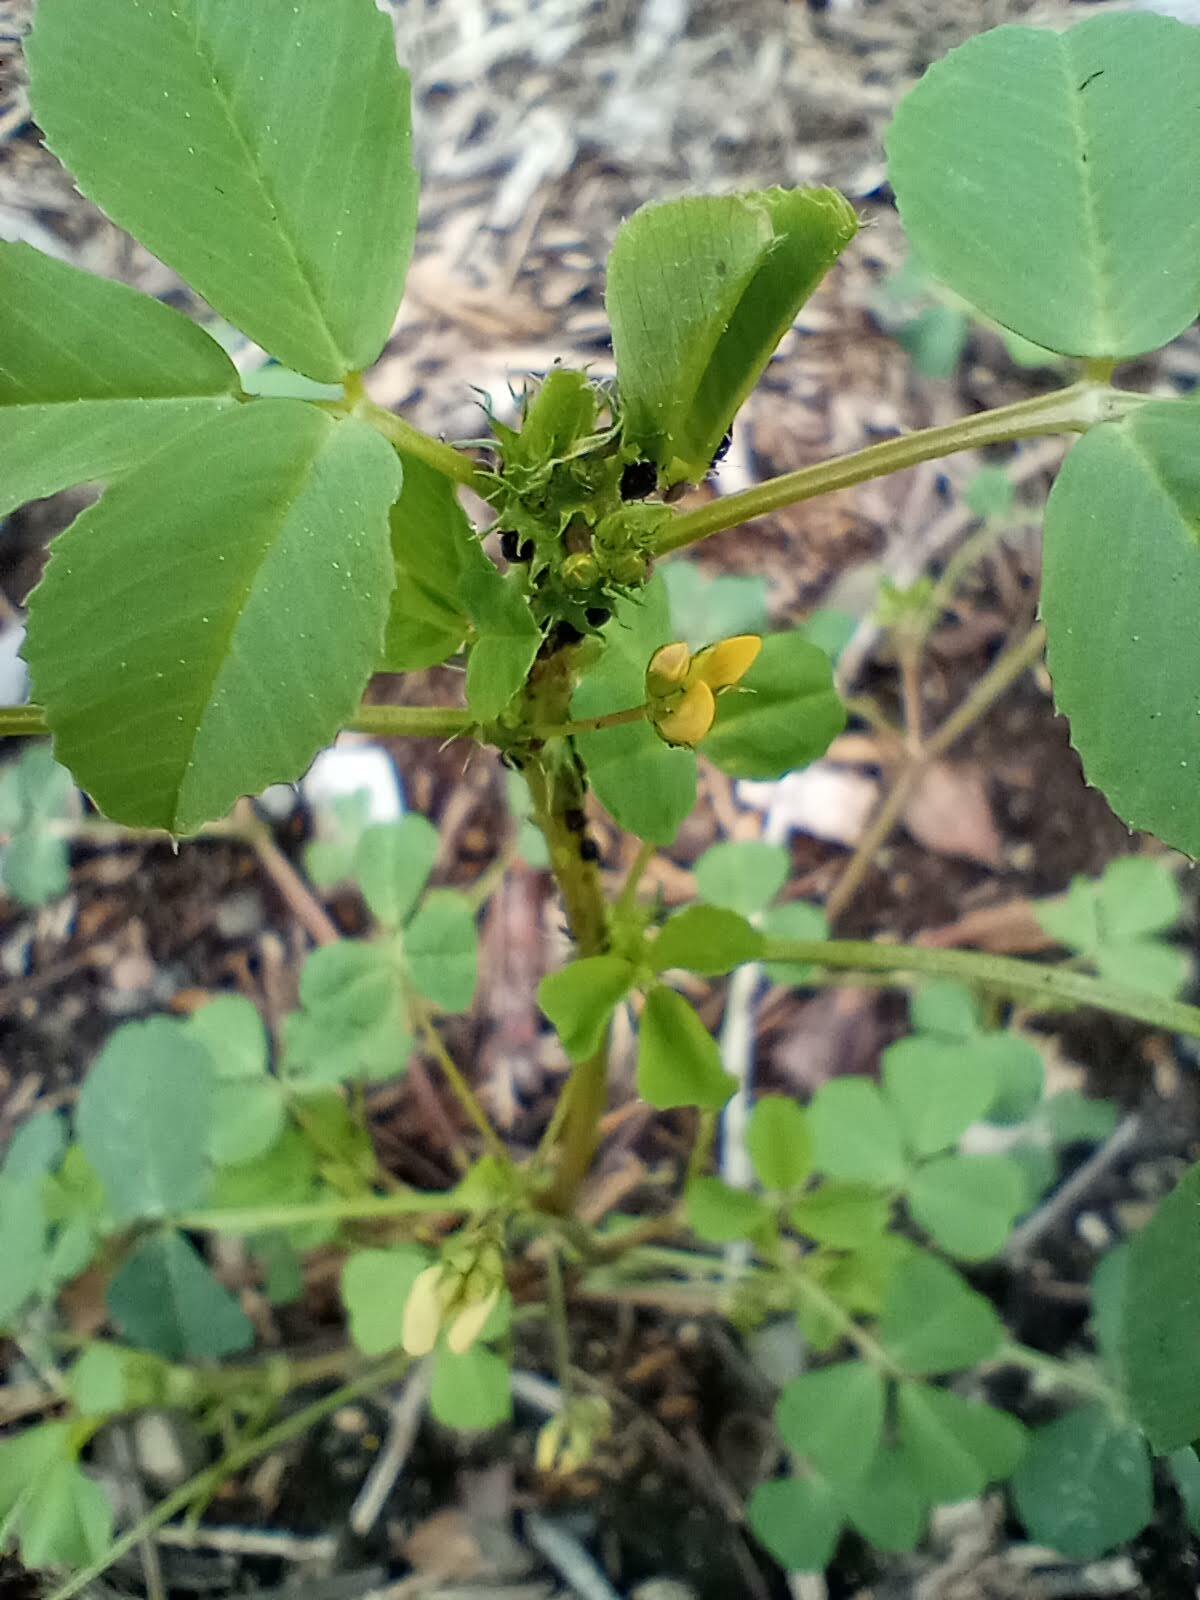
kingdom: Plantae
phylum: Tracheophyta
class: Magnoliopsida
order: Fabales
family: Fabaceae
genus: Medicago
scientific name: Medicago polymorpha
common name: Burclover
